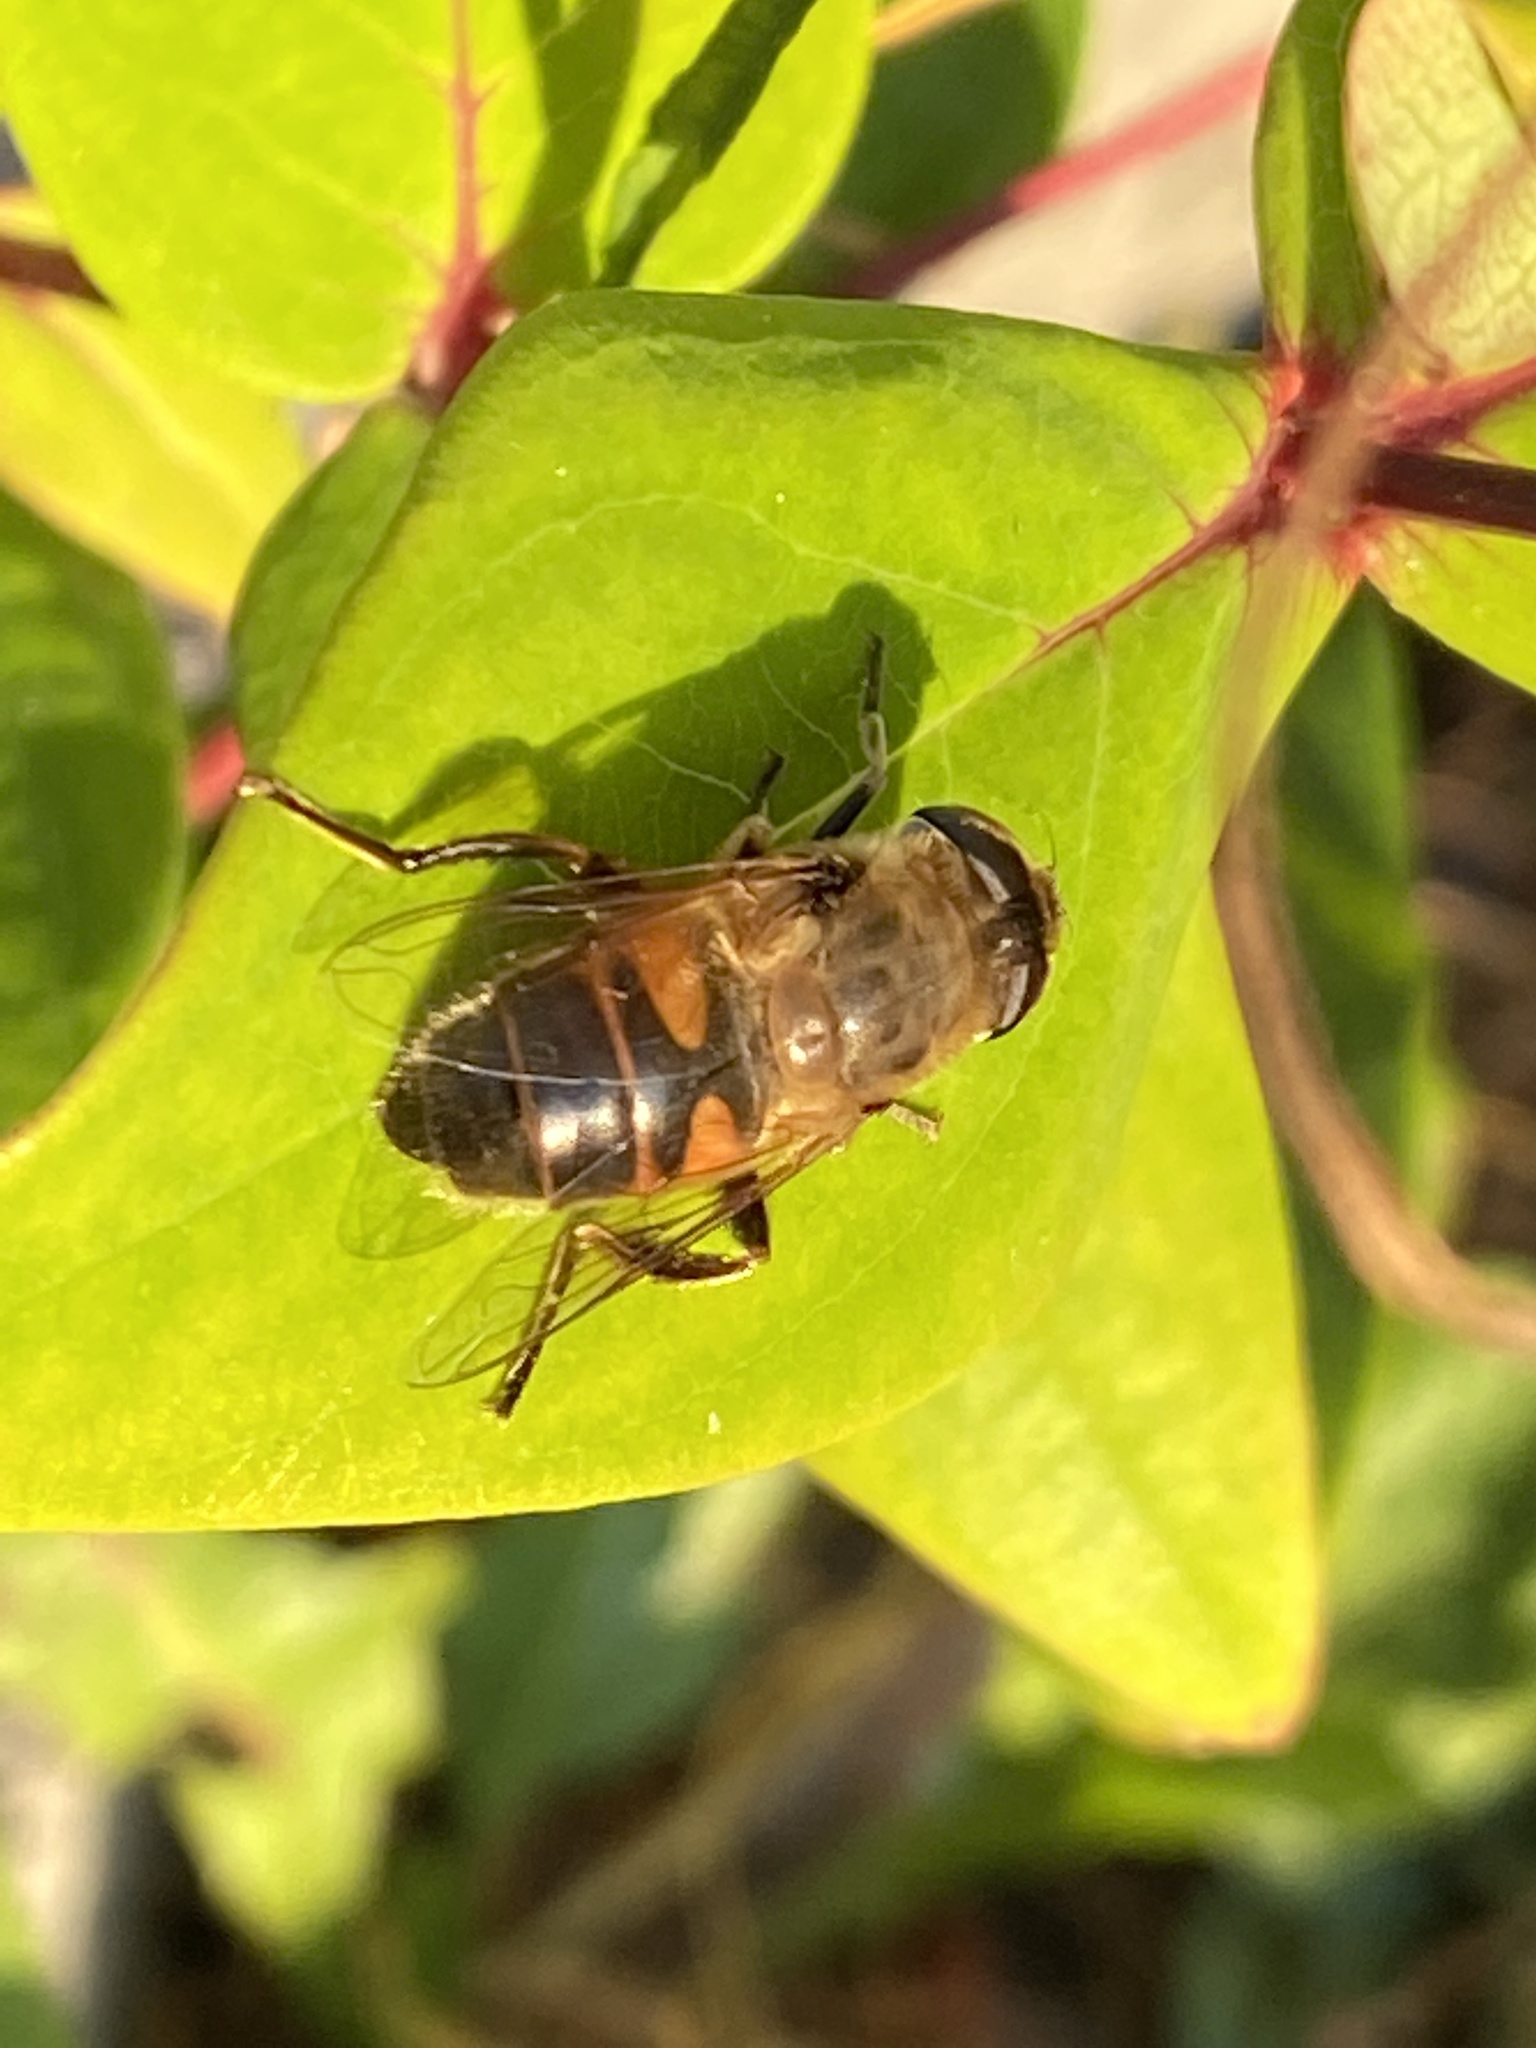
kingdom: Animalia
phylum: Arthropoda
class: Insecta
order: Diptera
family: Syrphidae
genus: Eristalis
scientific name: Eristalis tenax
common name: Drone fly
